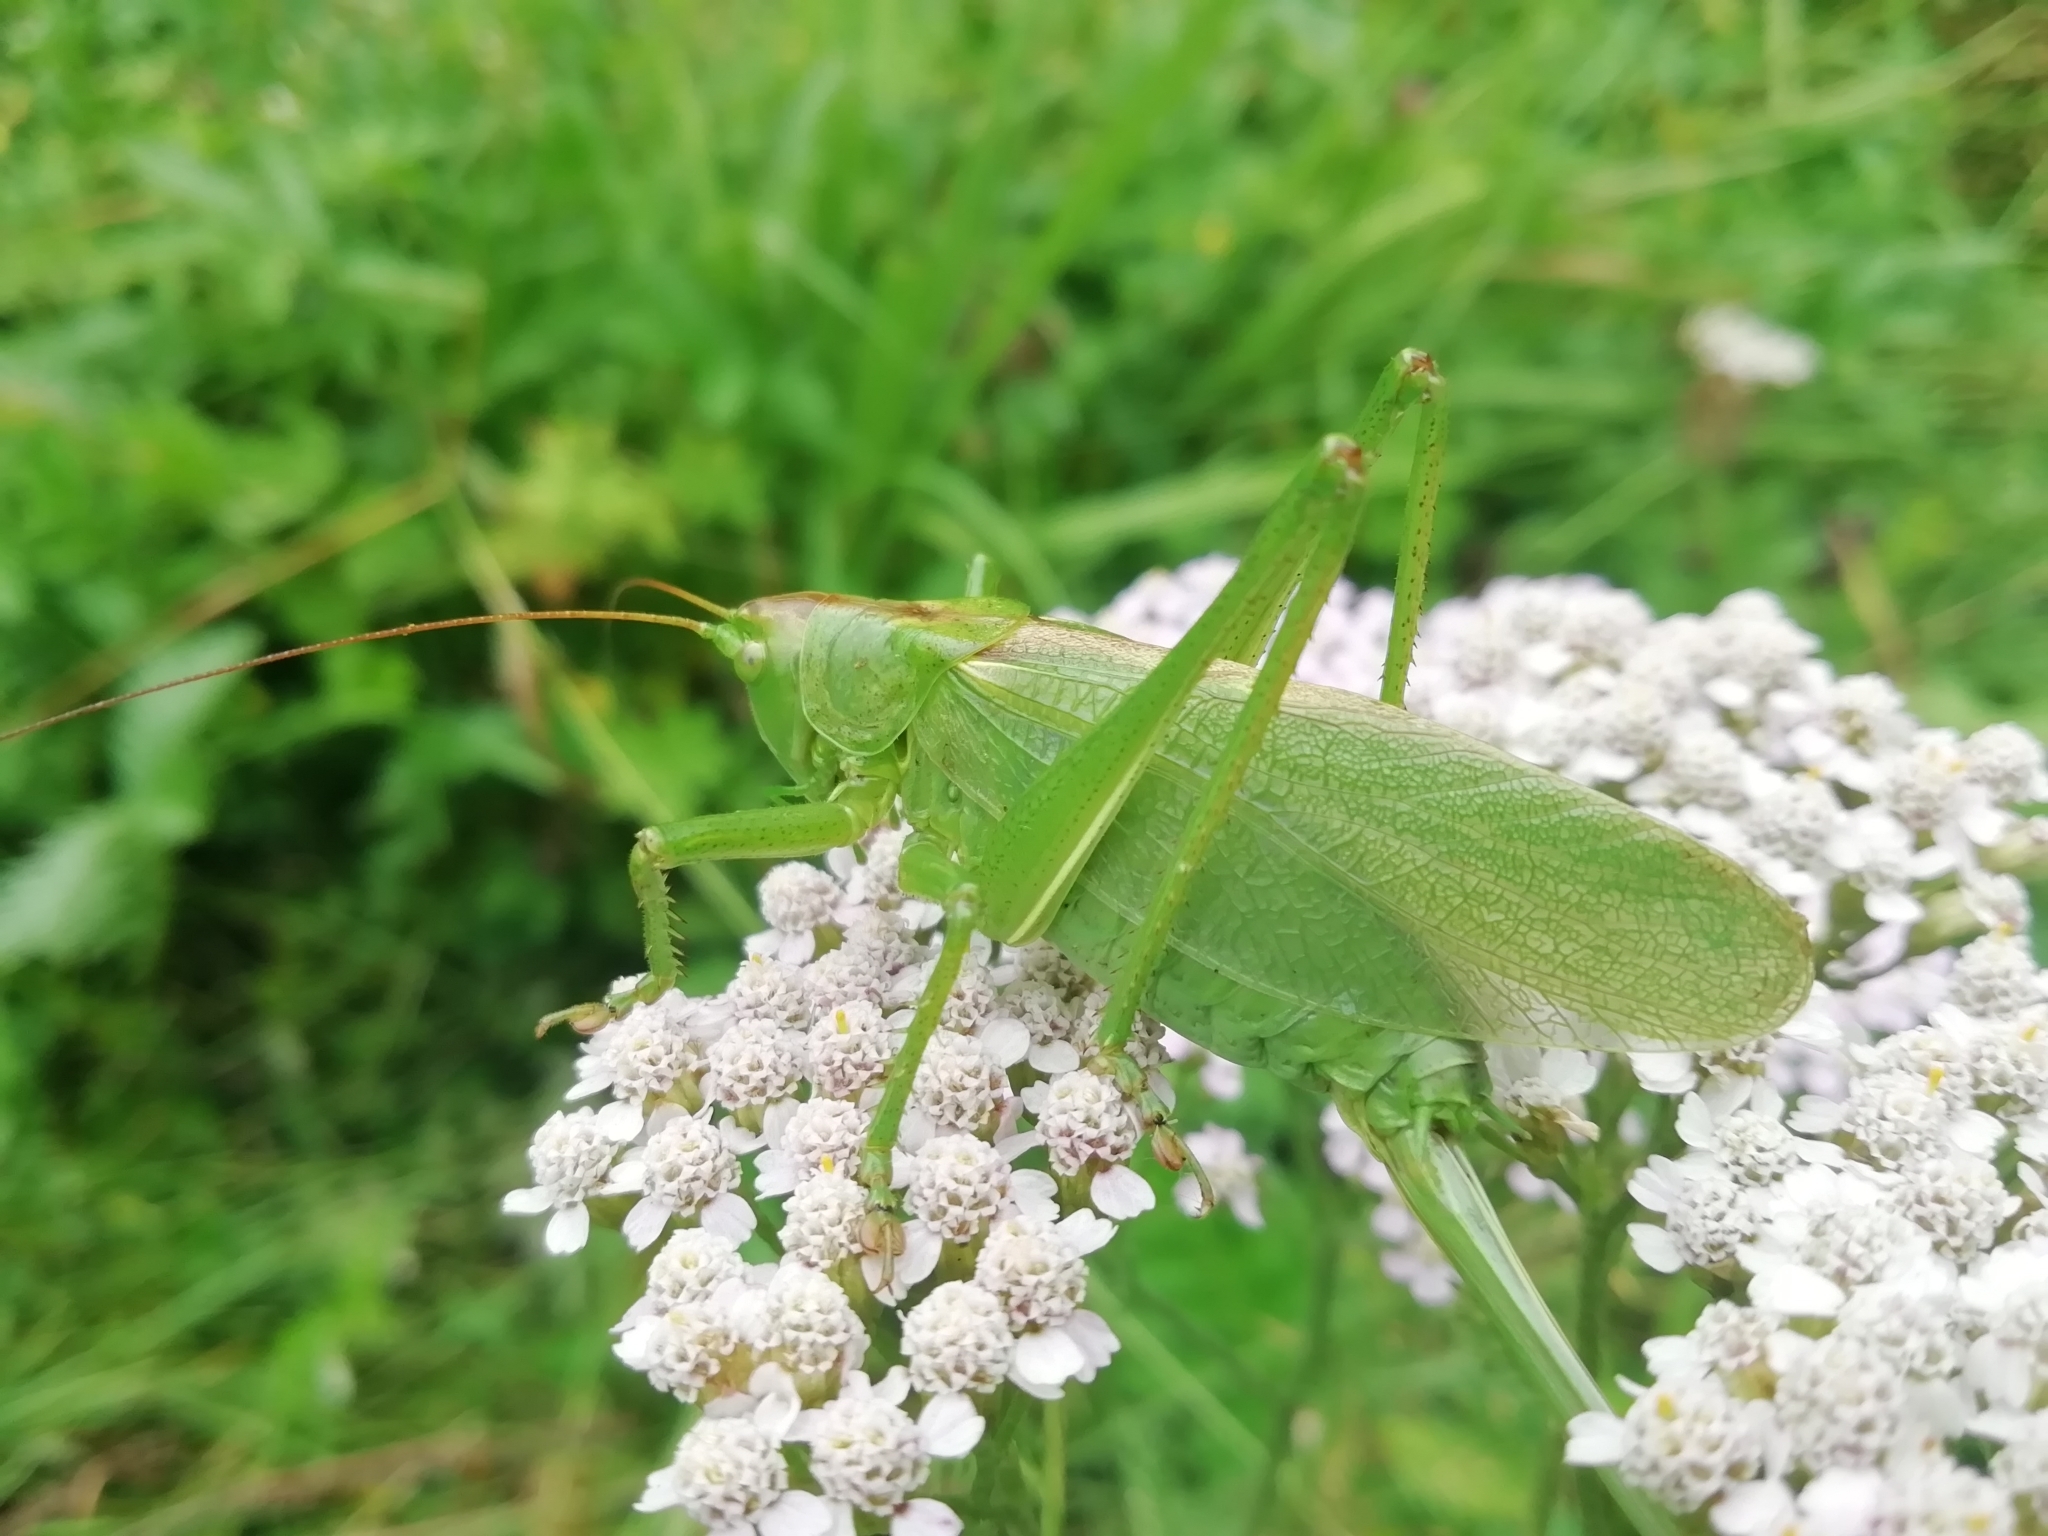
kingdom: Animalia
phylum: Arthropoda
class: Insecta
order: Orthoptera
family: Tettigoniidae
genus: Tettigonia
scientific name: Tettigonia cantans
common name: Upland green bush-cricket
